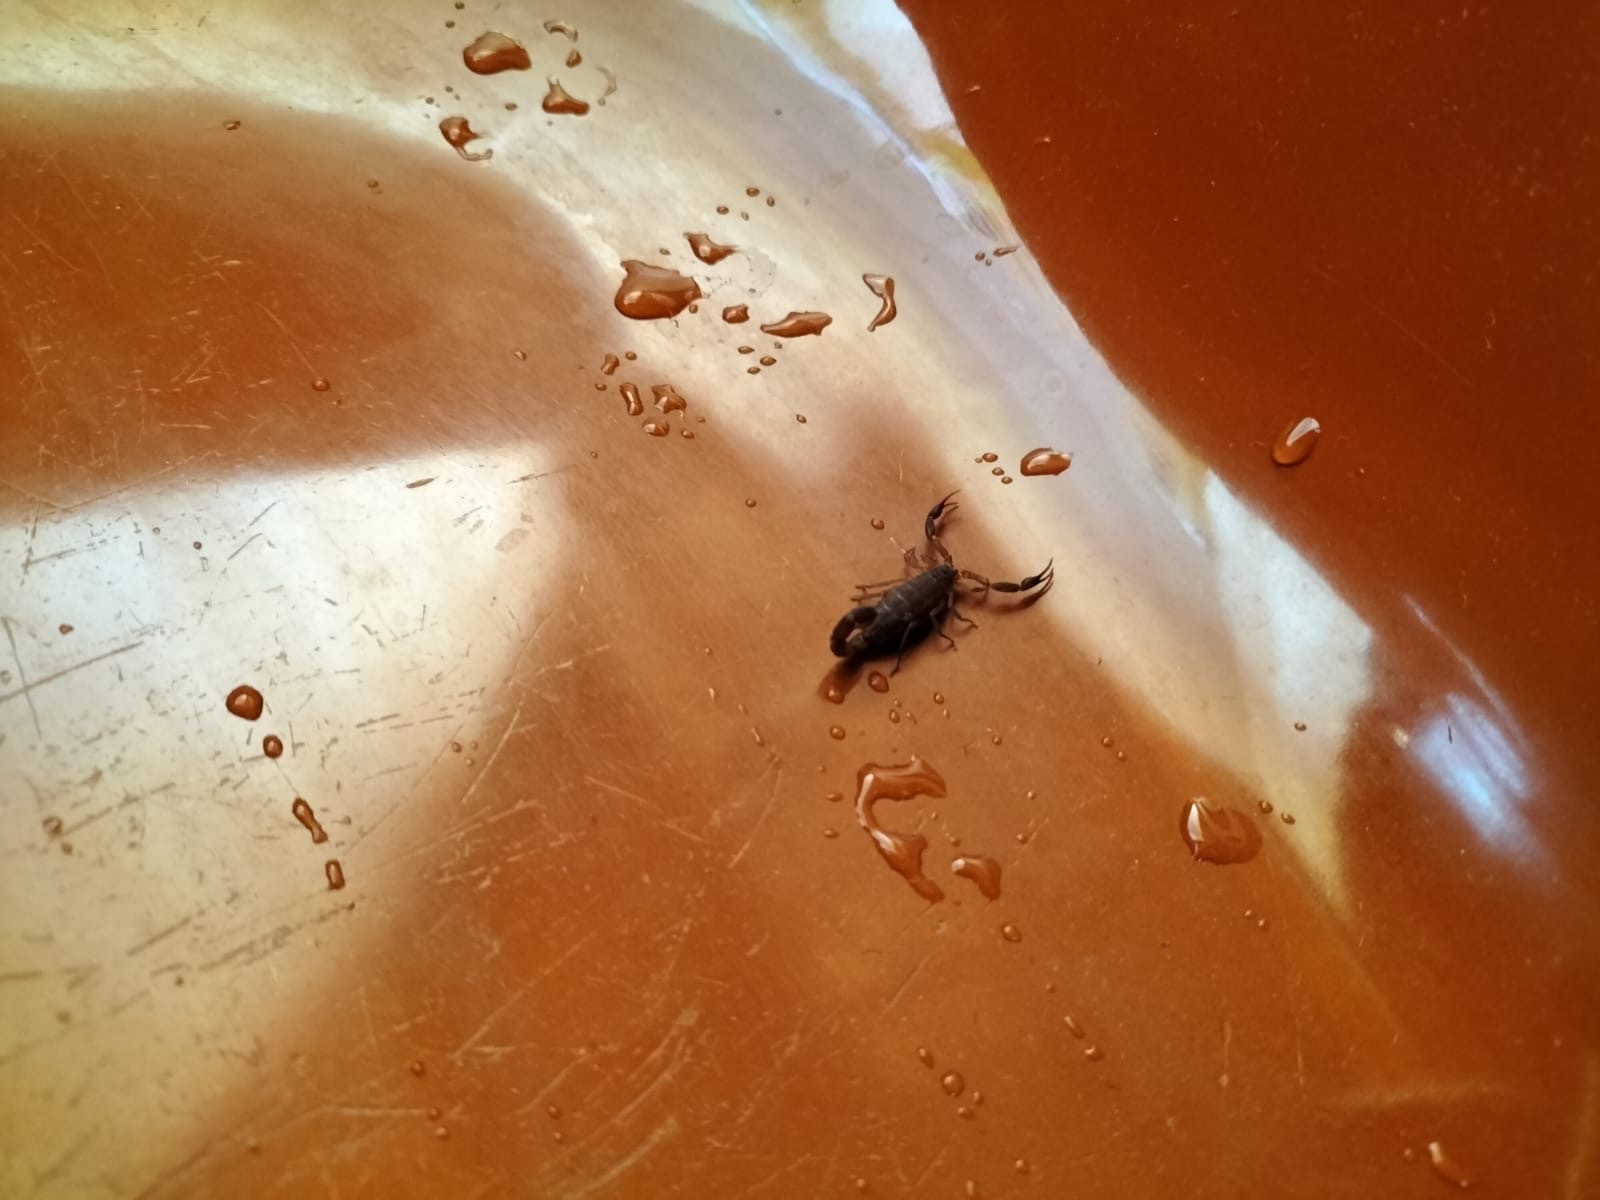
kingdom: Animalia
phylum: Arthropoda
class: Arachnida
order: Scorpiones
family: Buthidae
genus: Pseudolychas
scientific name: Pseudolychas ochraceus
